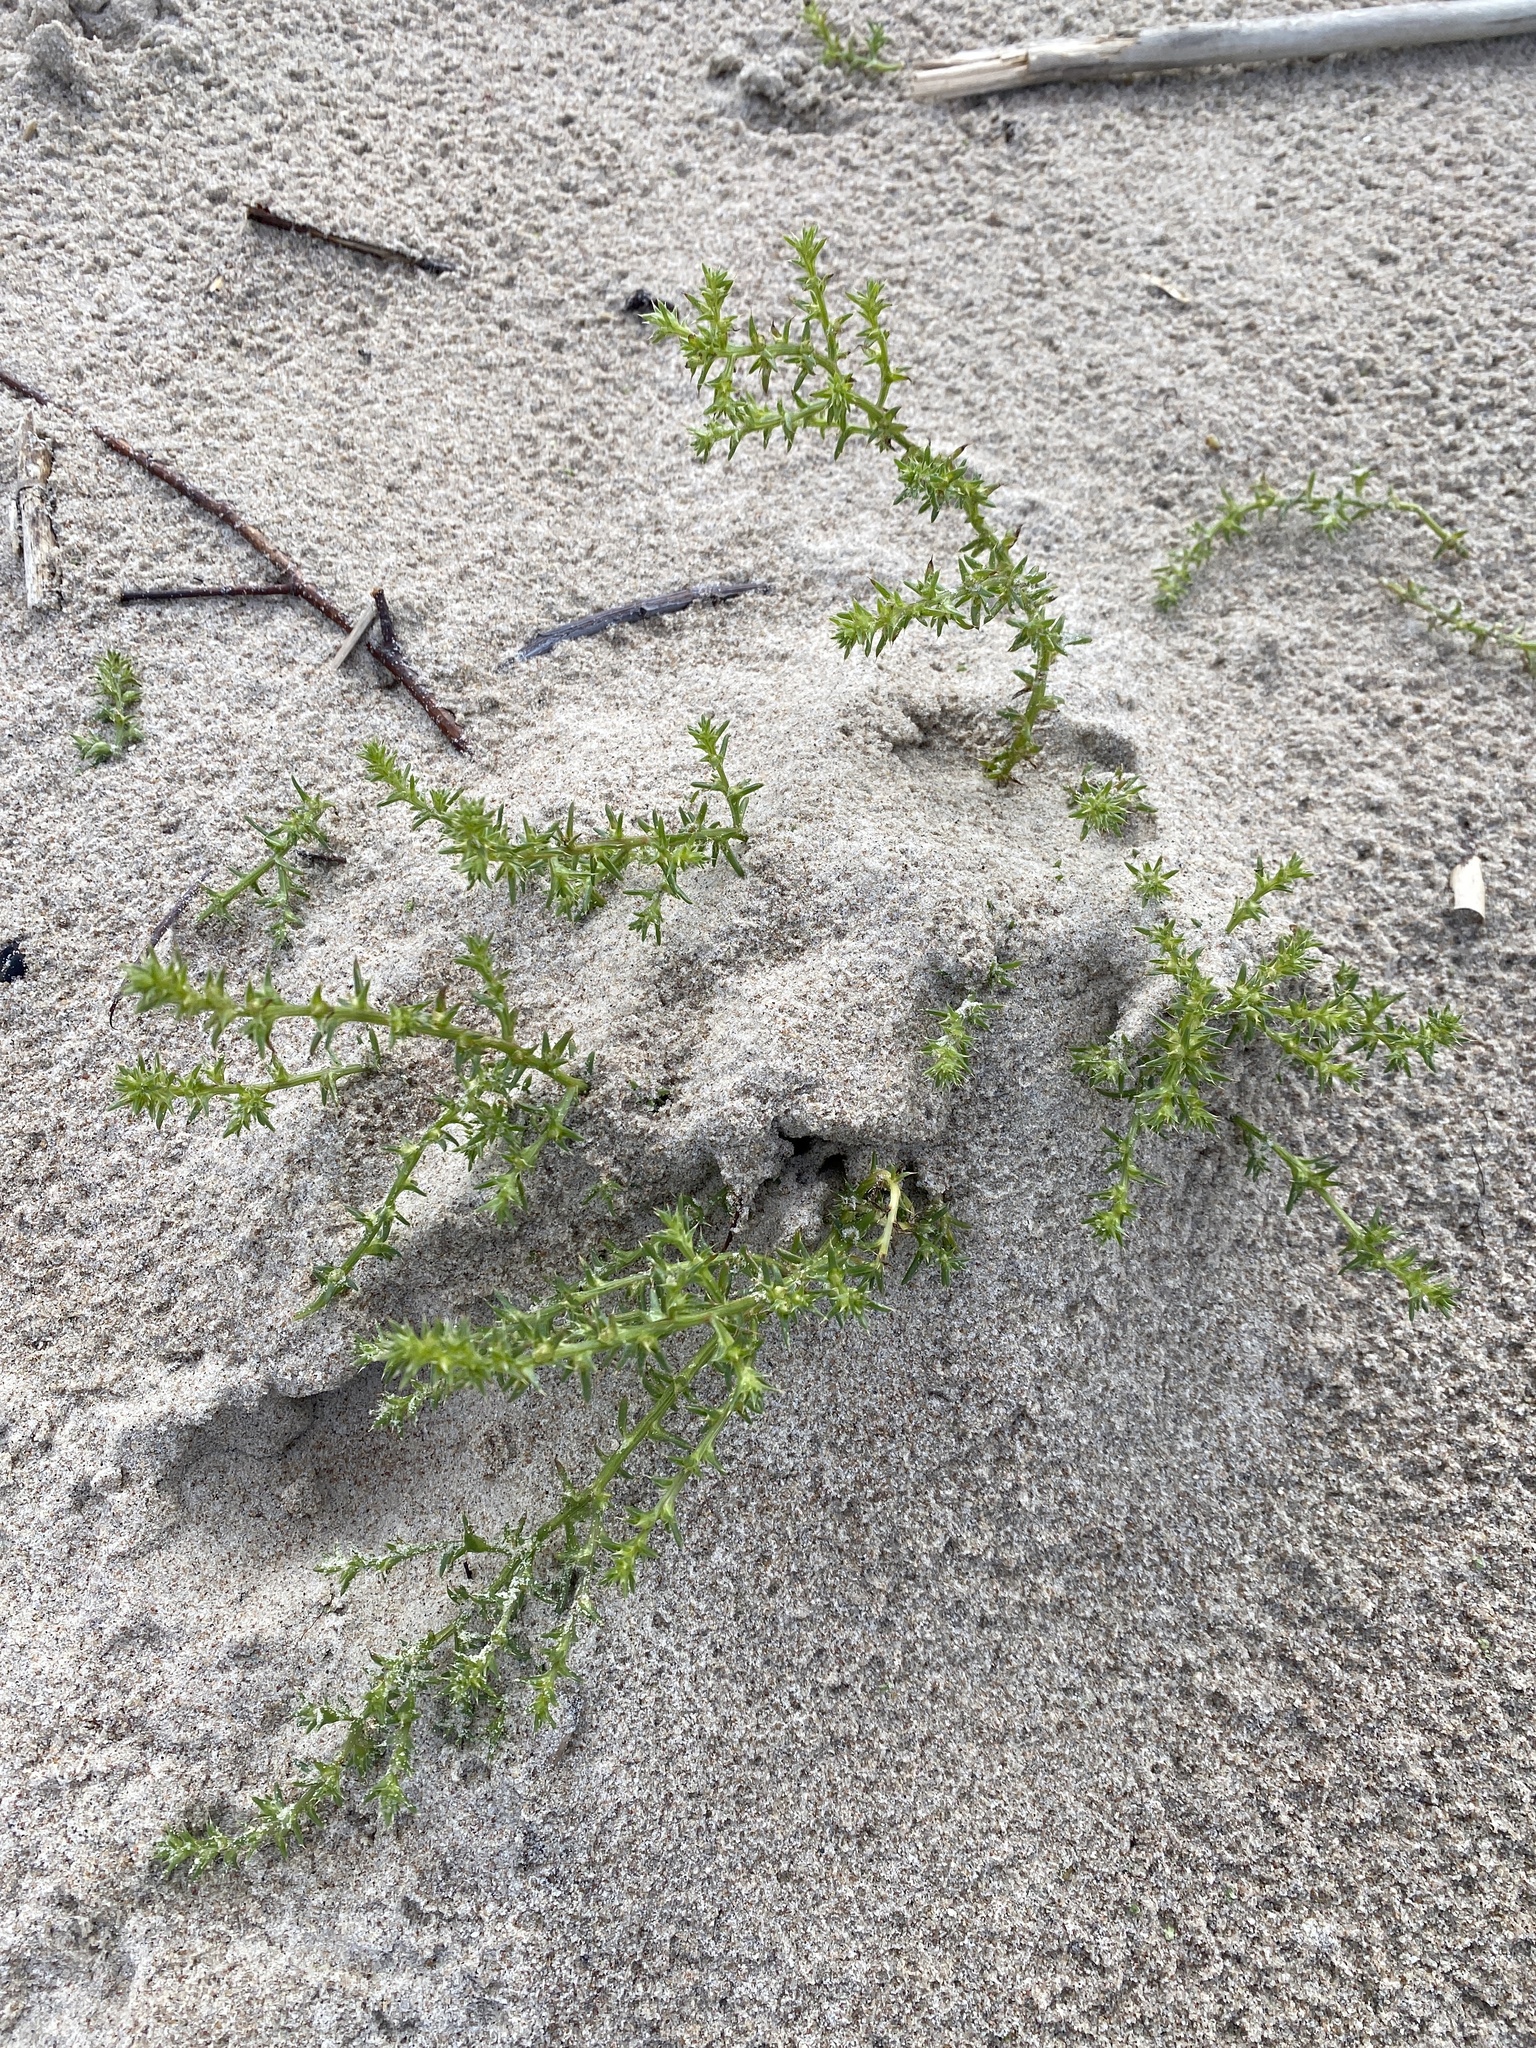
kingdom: Plantae
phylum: Tracheophyta
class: Magnoliopsida
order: Caryophyllales
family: Amaranthaceae
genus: Salsola
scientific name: Salsola kali
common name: Saltwort
